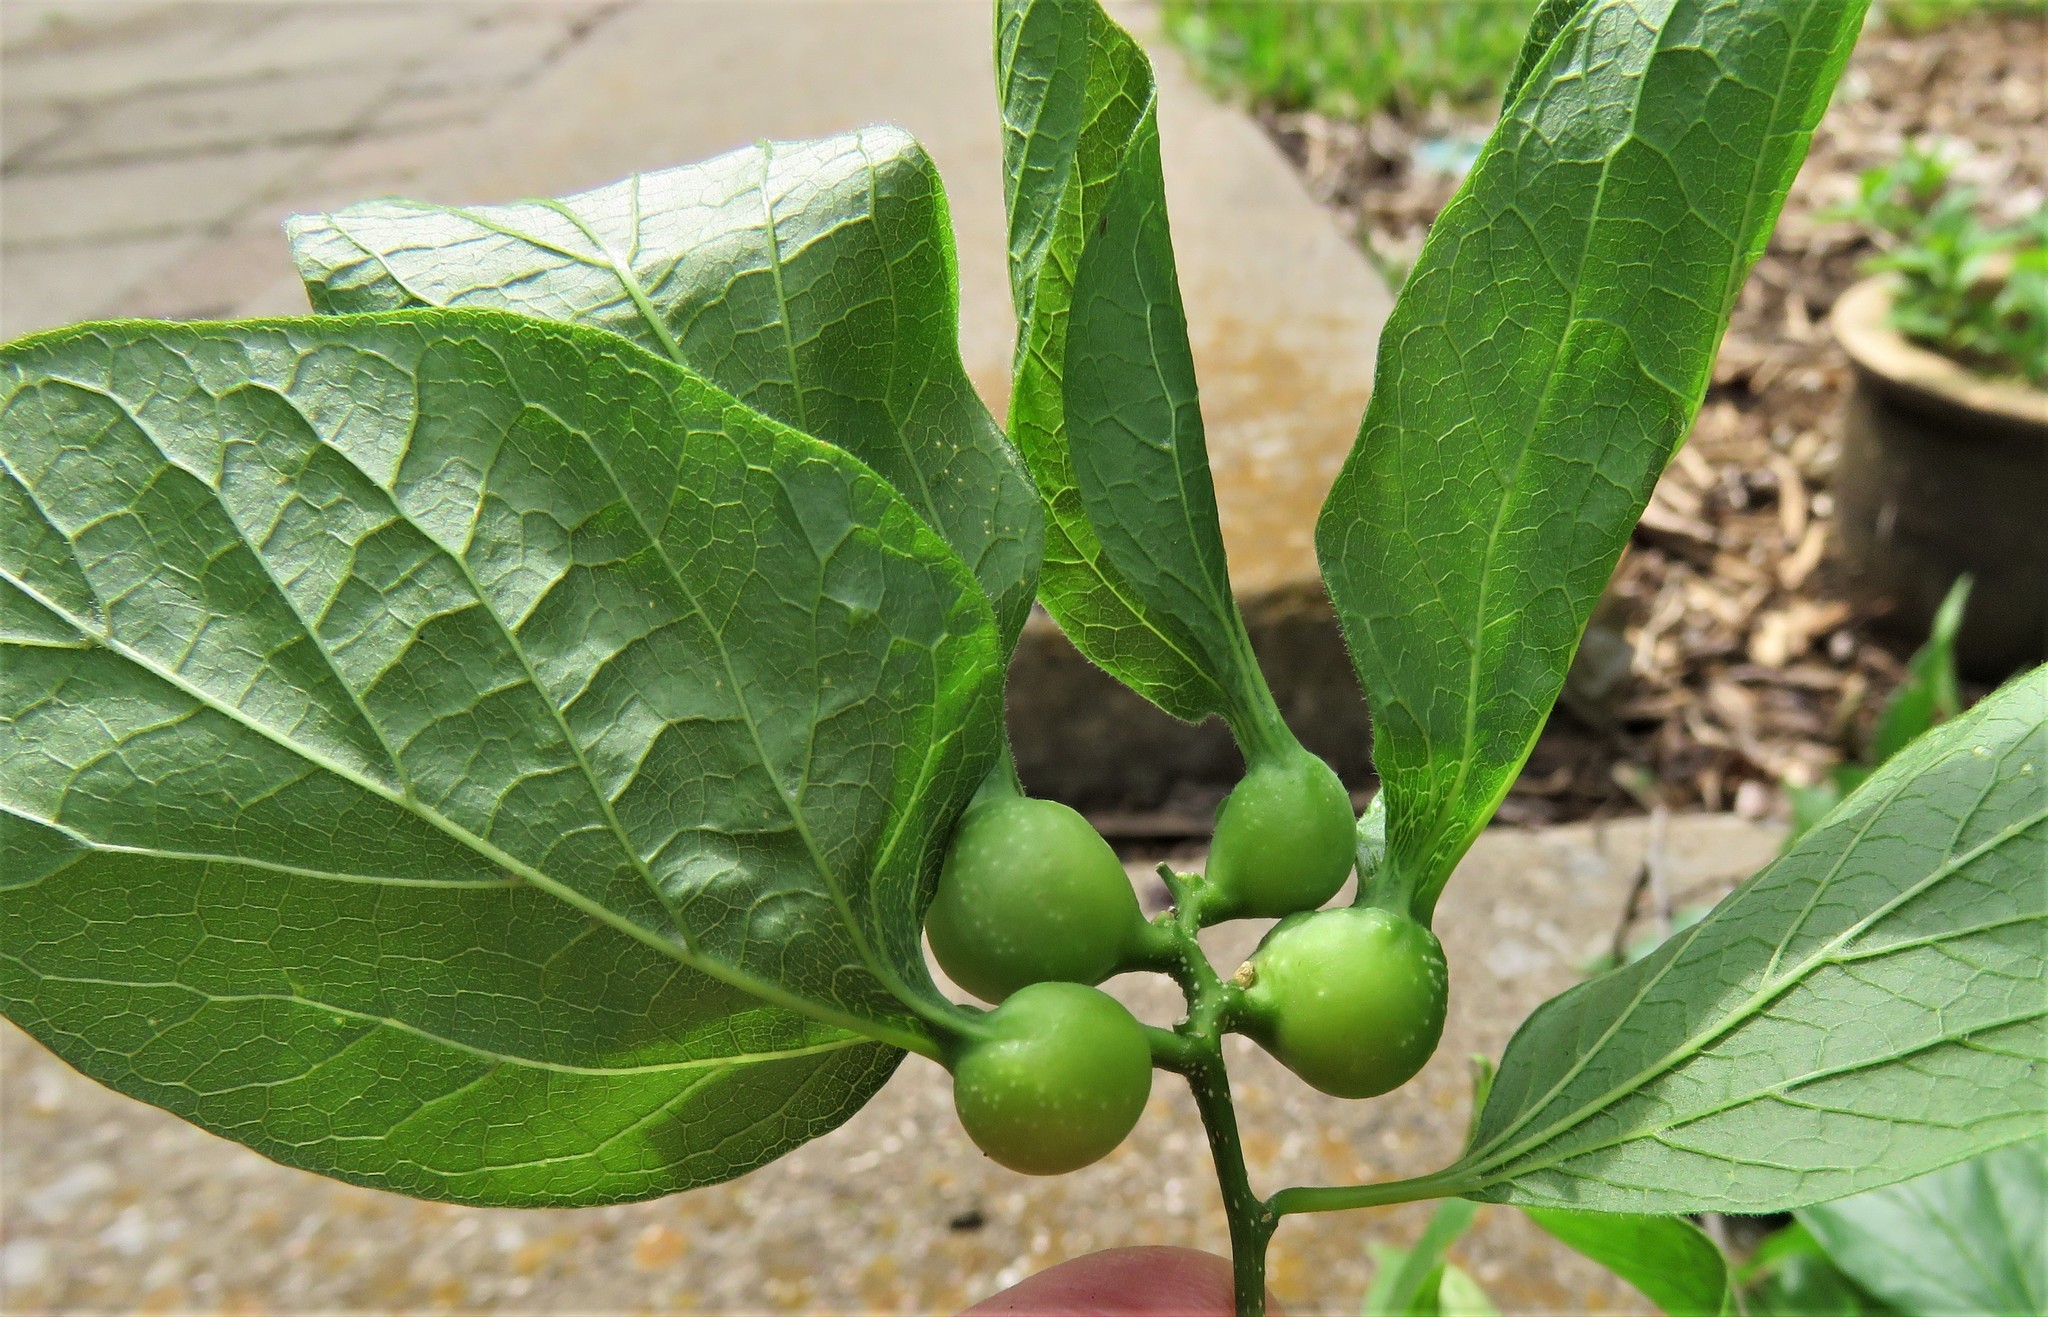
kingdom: Animalia
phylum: Arthropoda
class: Insecta
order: Hemiptera
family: Aphalaridae
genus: Pachypsylla
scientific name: Pachypsylla venusta
